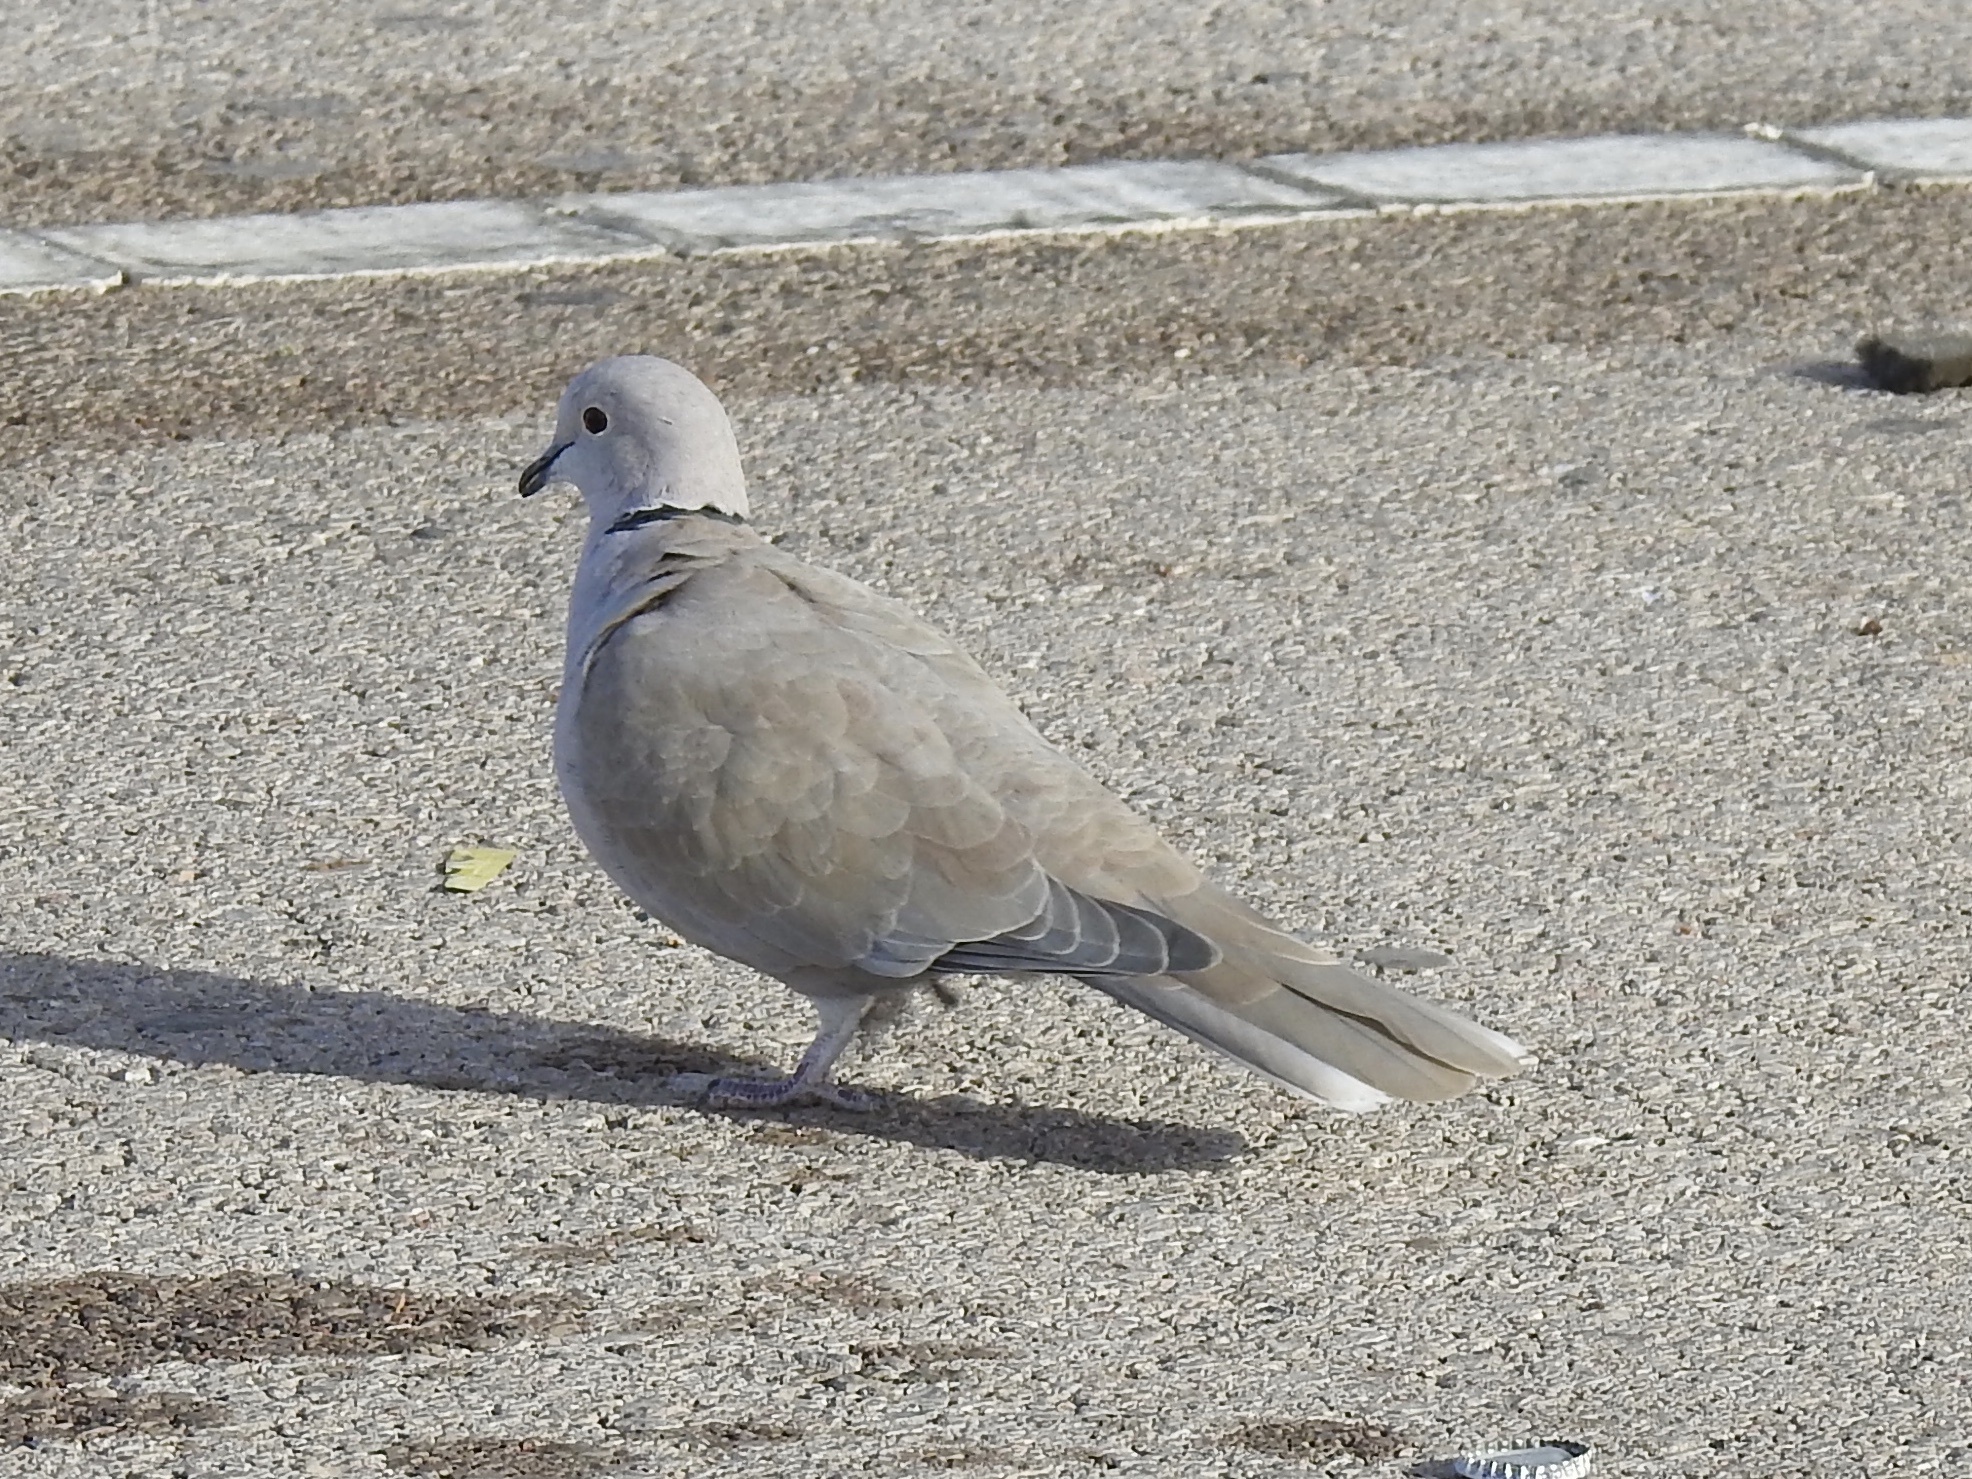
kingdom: Animalia
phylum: Chordata
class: Aves
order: Columbiformes
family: Columbidae
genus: Streptopelia
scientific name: Streptopelia decaocto
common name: Eurasian collared dove
